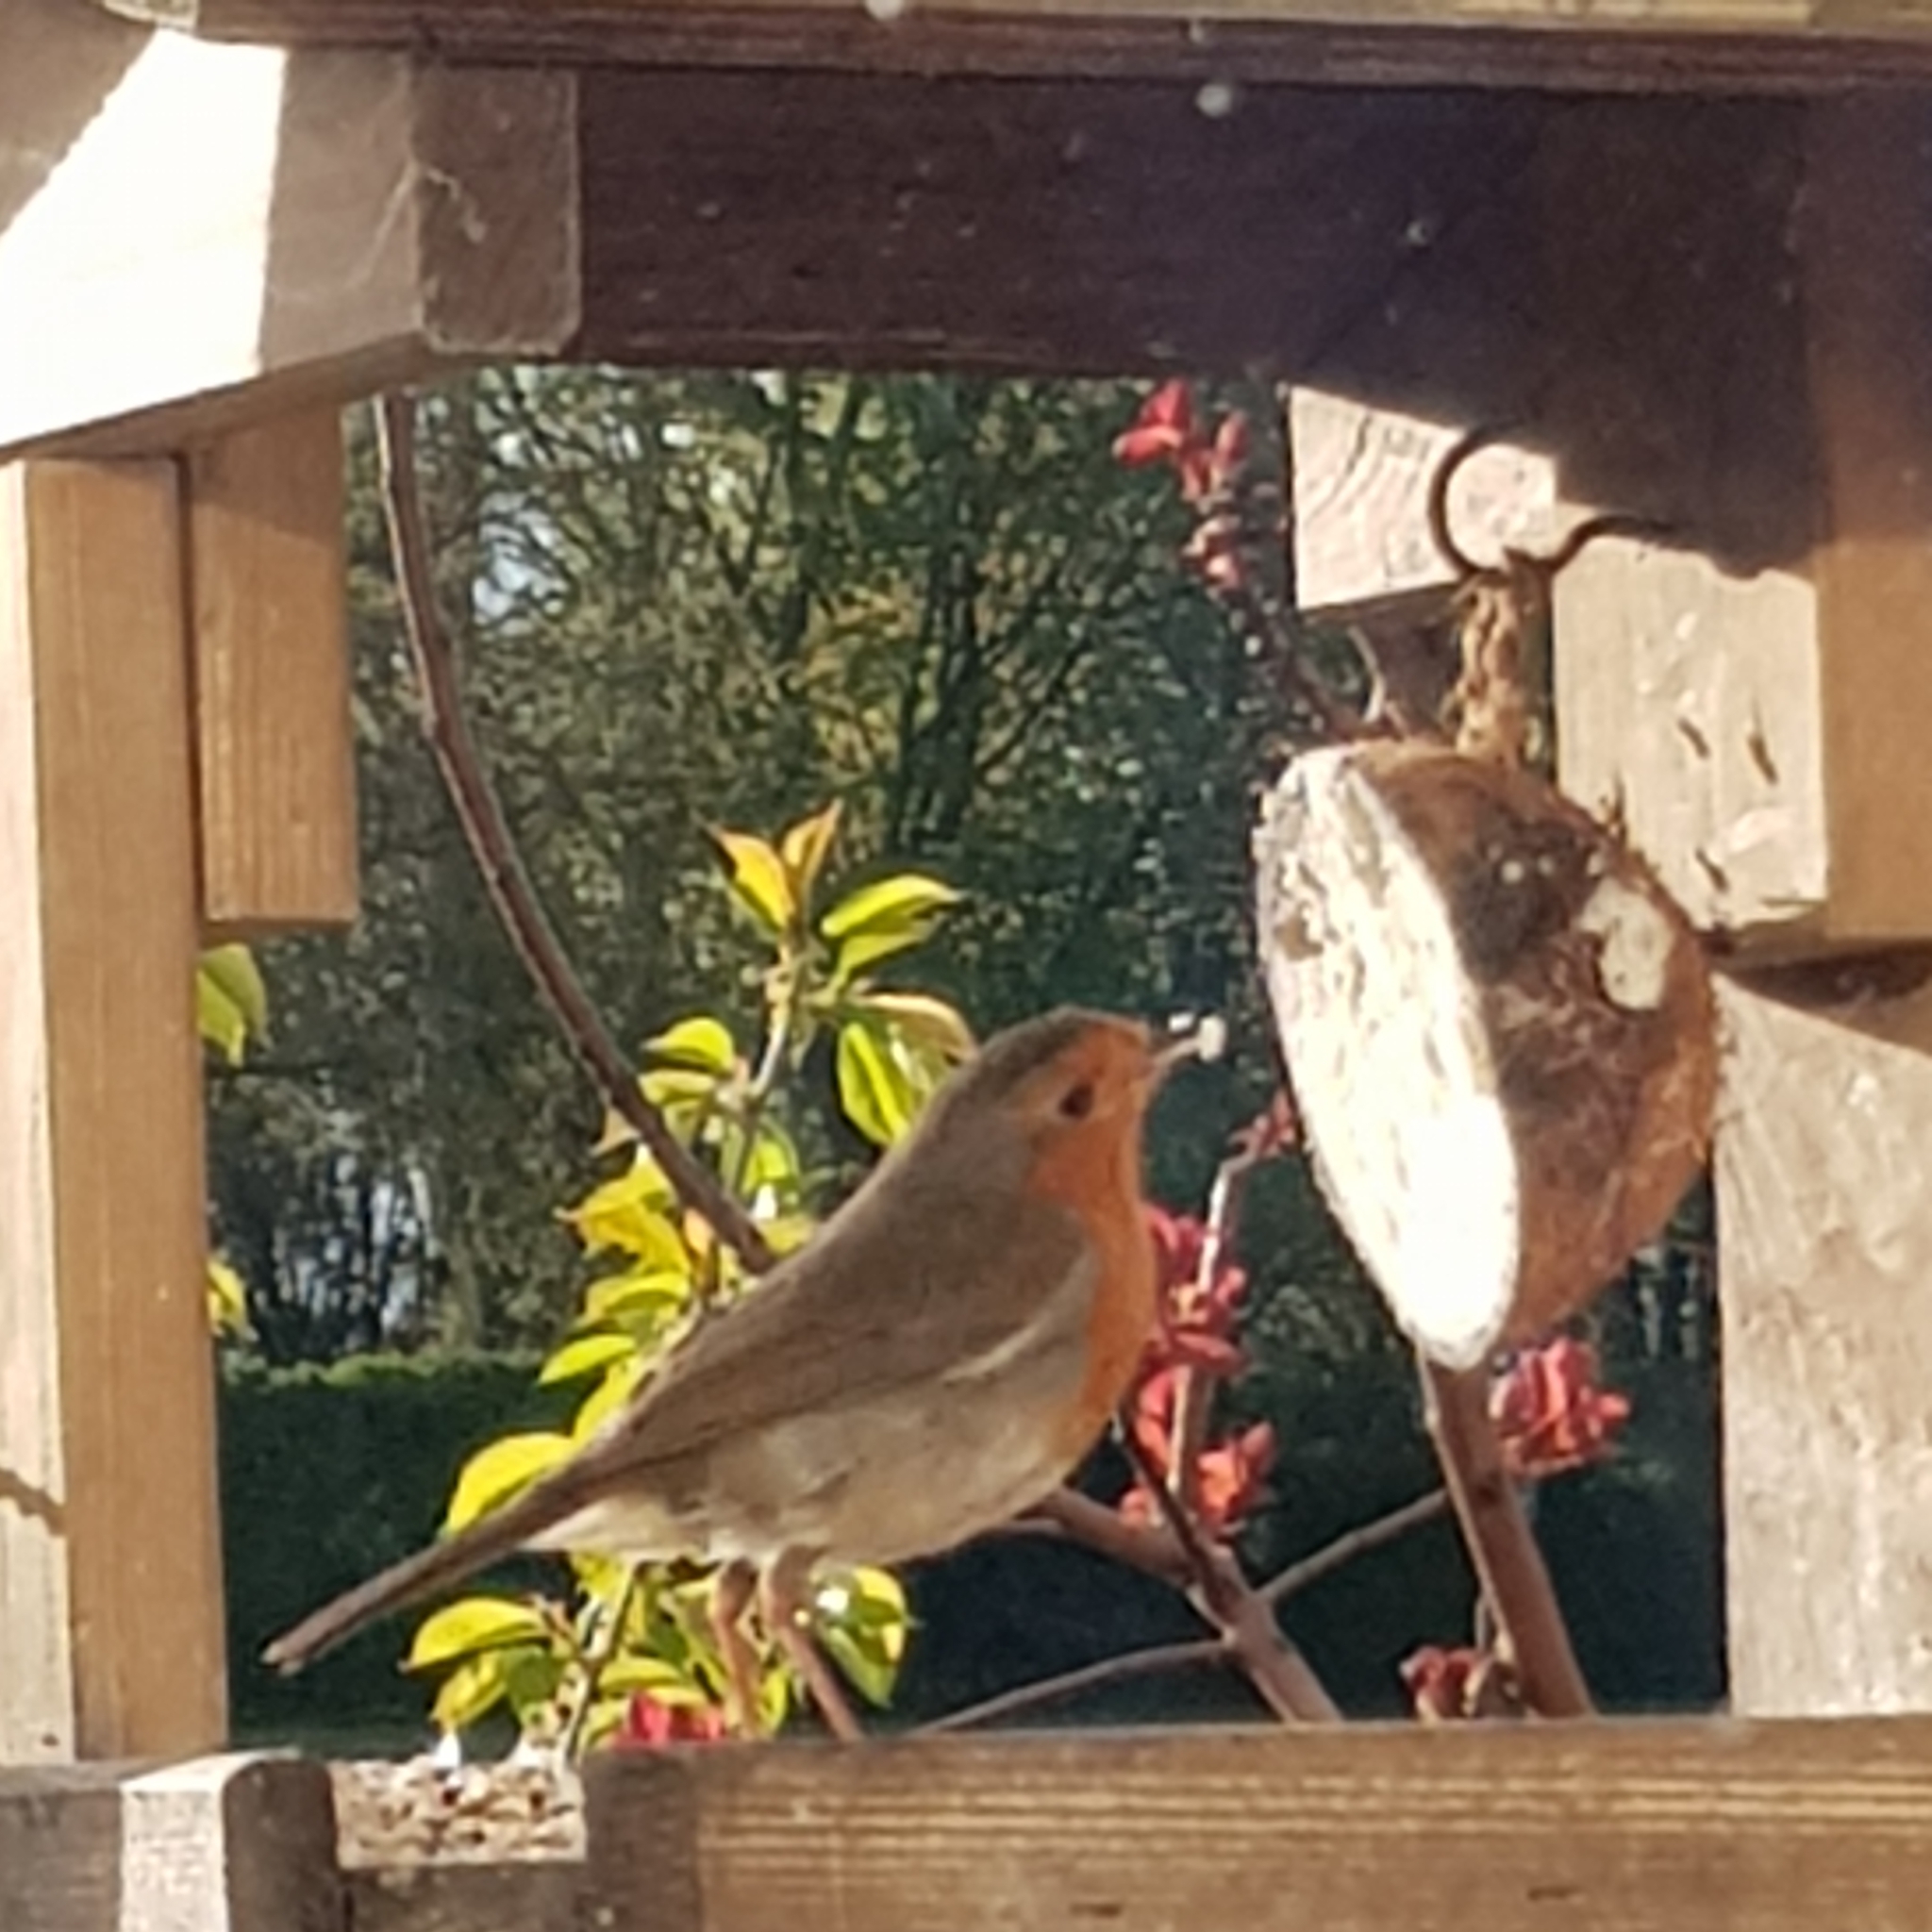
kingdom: Animalia
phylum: Chordata
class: Aves
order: Passeriformes
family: Muscicapidae
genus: Erithacus
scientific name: Erithacus rubecula
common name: European robin
